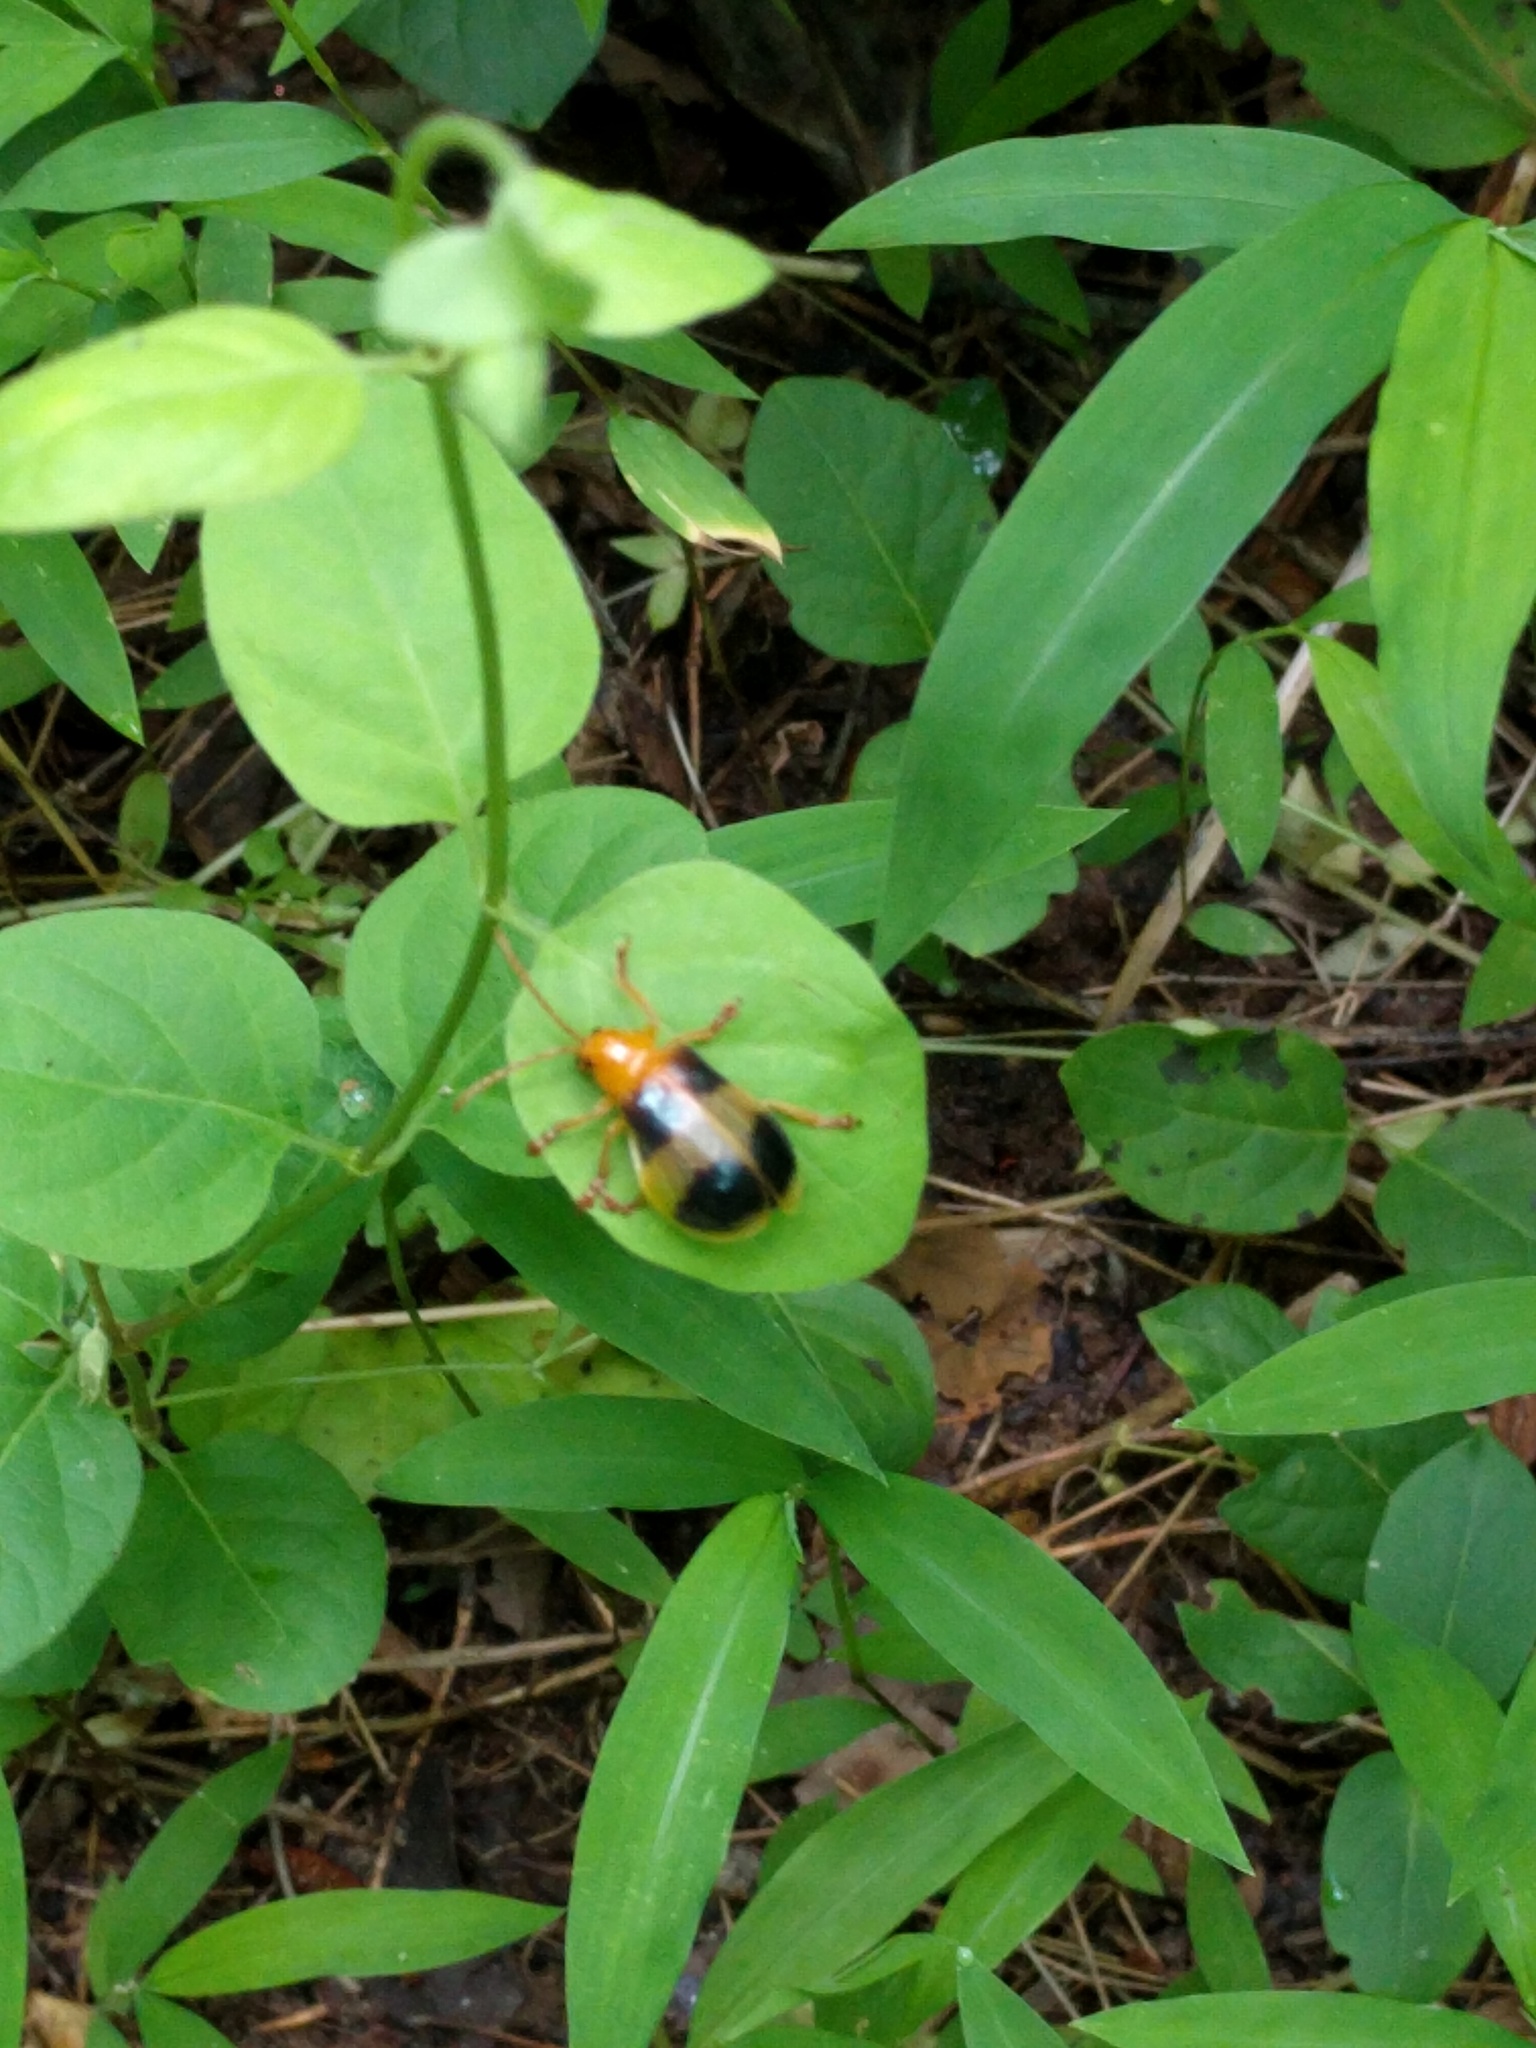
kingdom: Animalia
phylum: Arthropoda
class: Insecta
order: Coleoptera
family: Chrysomelidae
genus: Monocesta
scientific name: Monocesta coryli
